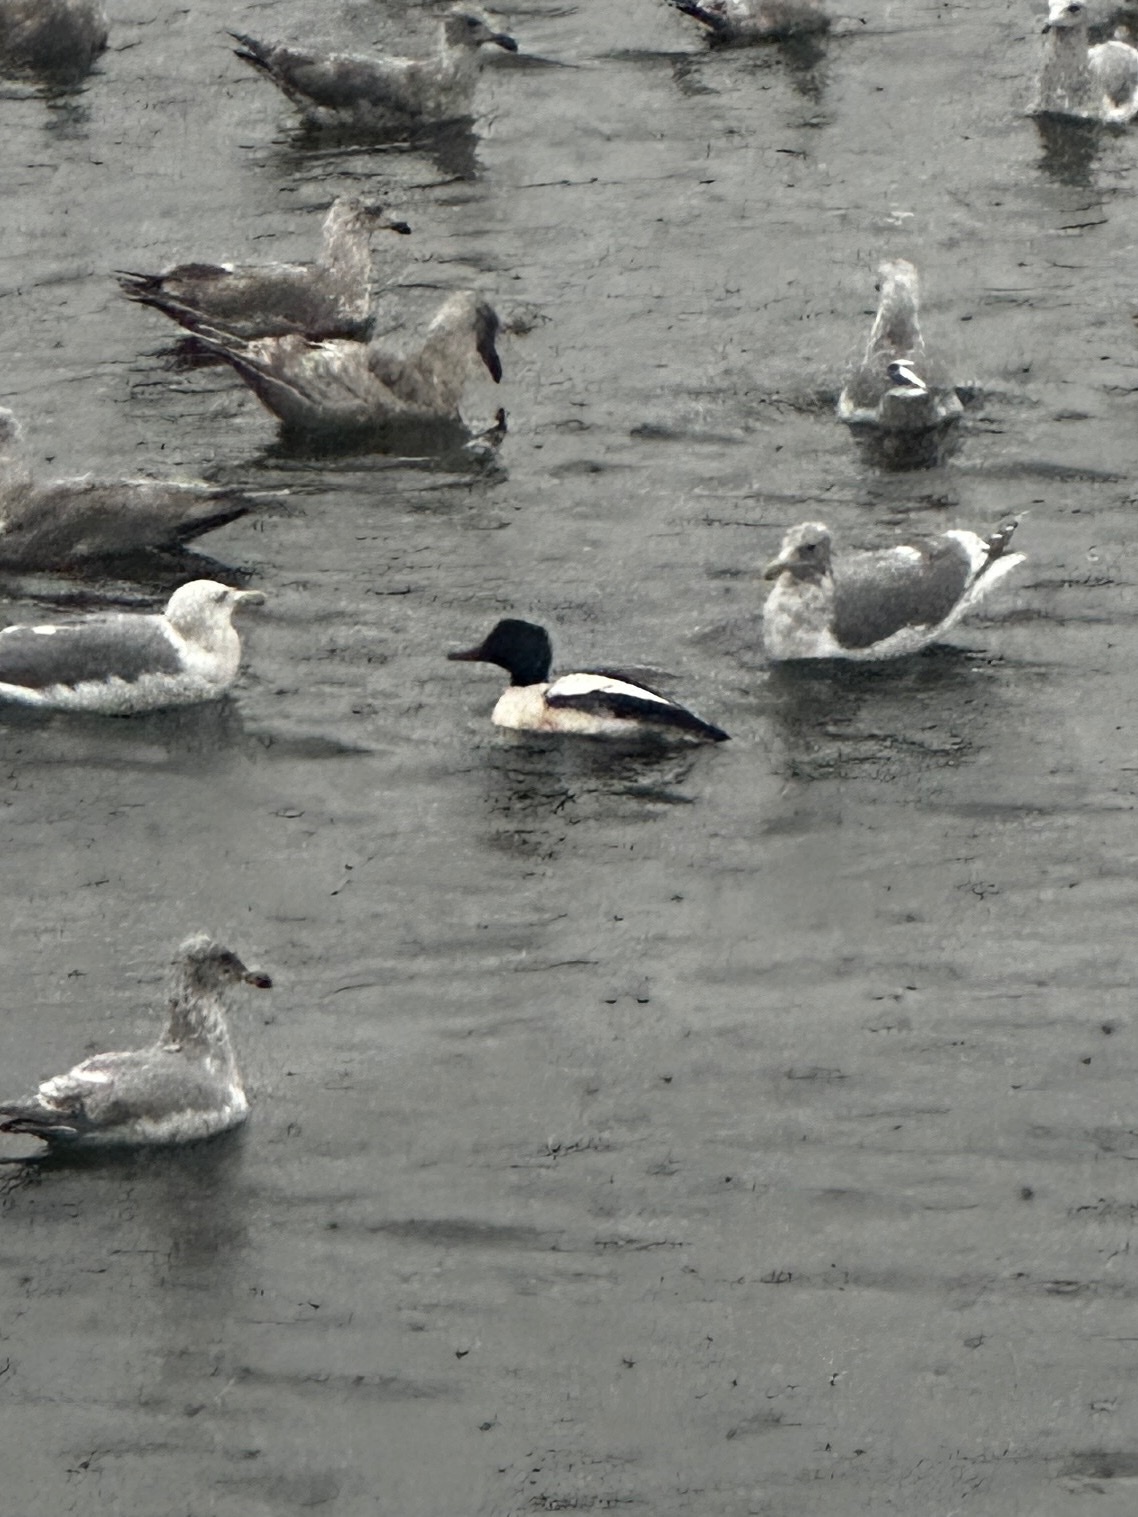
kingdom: Animalia
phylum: Chordata
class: Aves
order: Anseriformes
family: Anatidae
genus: Mergus
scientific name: Mergus merganser
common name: Common merganser
